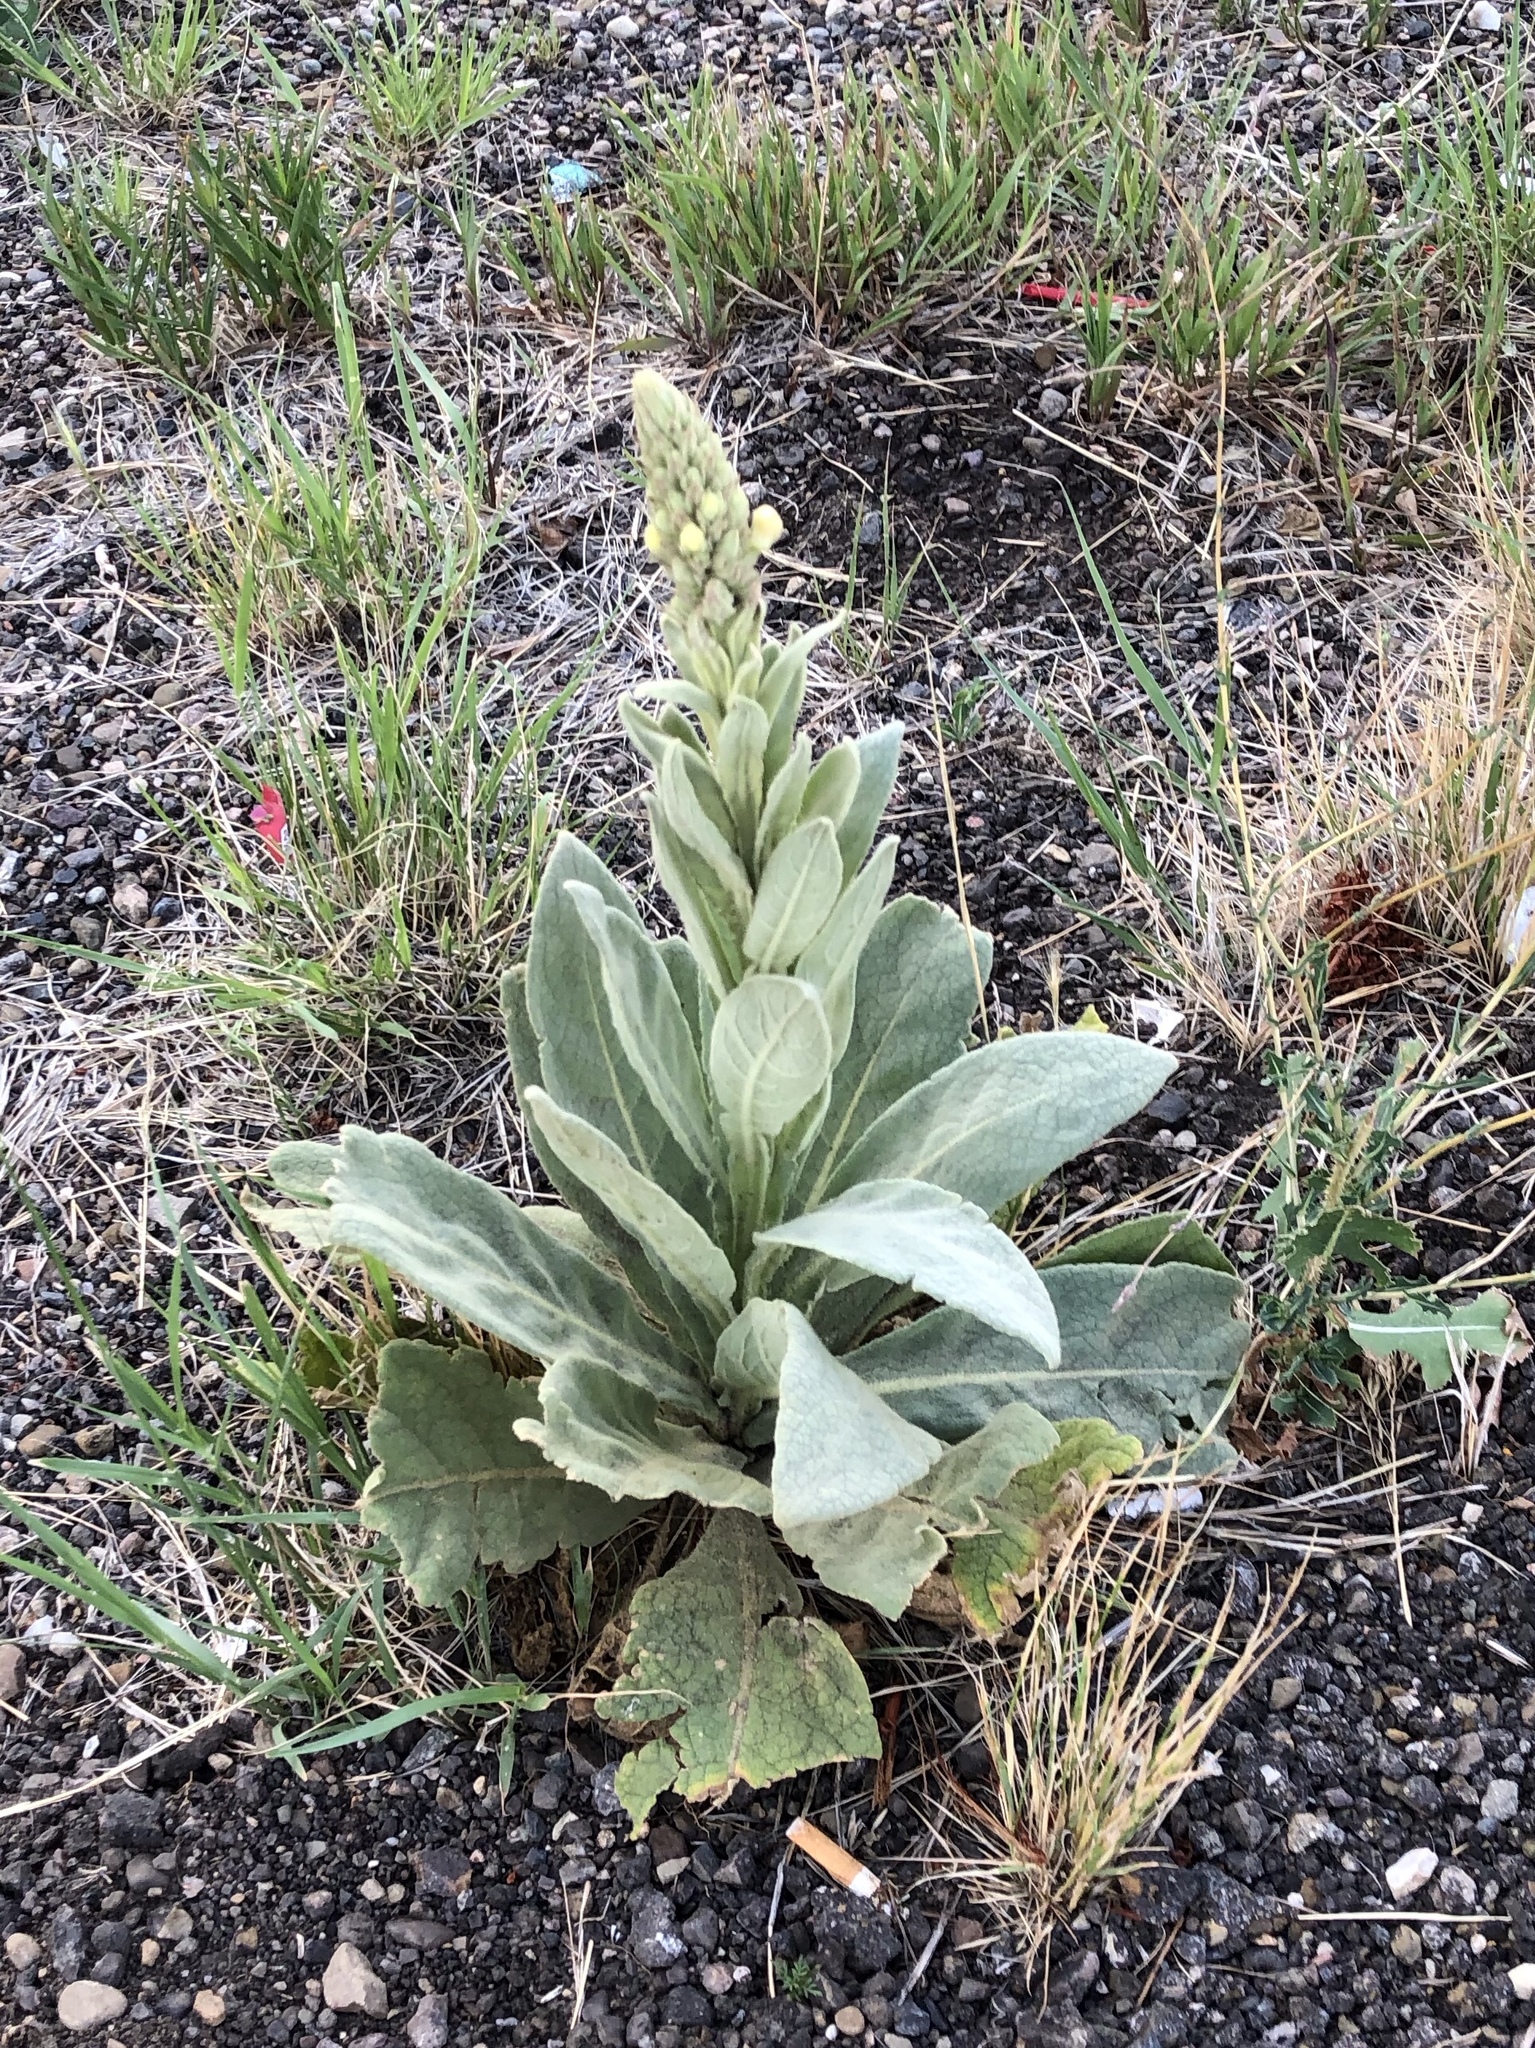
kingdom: Plantae
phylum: Tracheophyta
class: Magnoliopsida
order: Lamiales
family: Scrophulariaceae
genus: Verbascum
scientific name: Verbascum thapsus
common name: Common mullein
